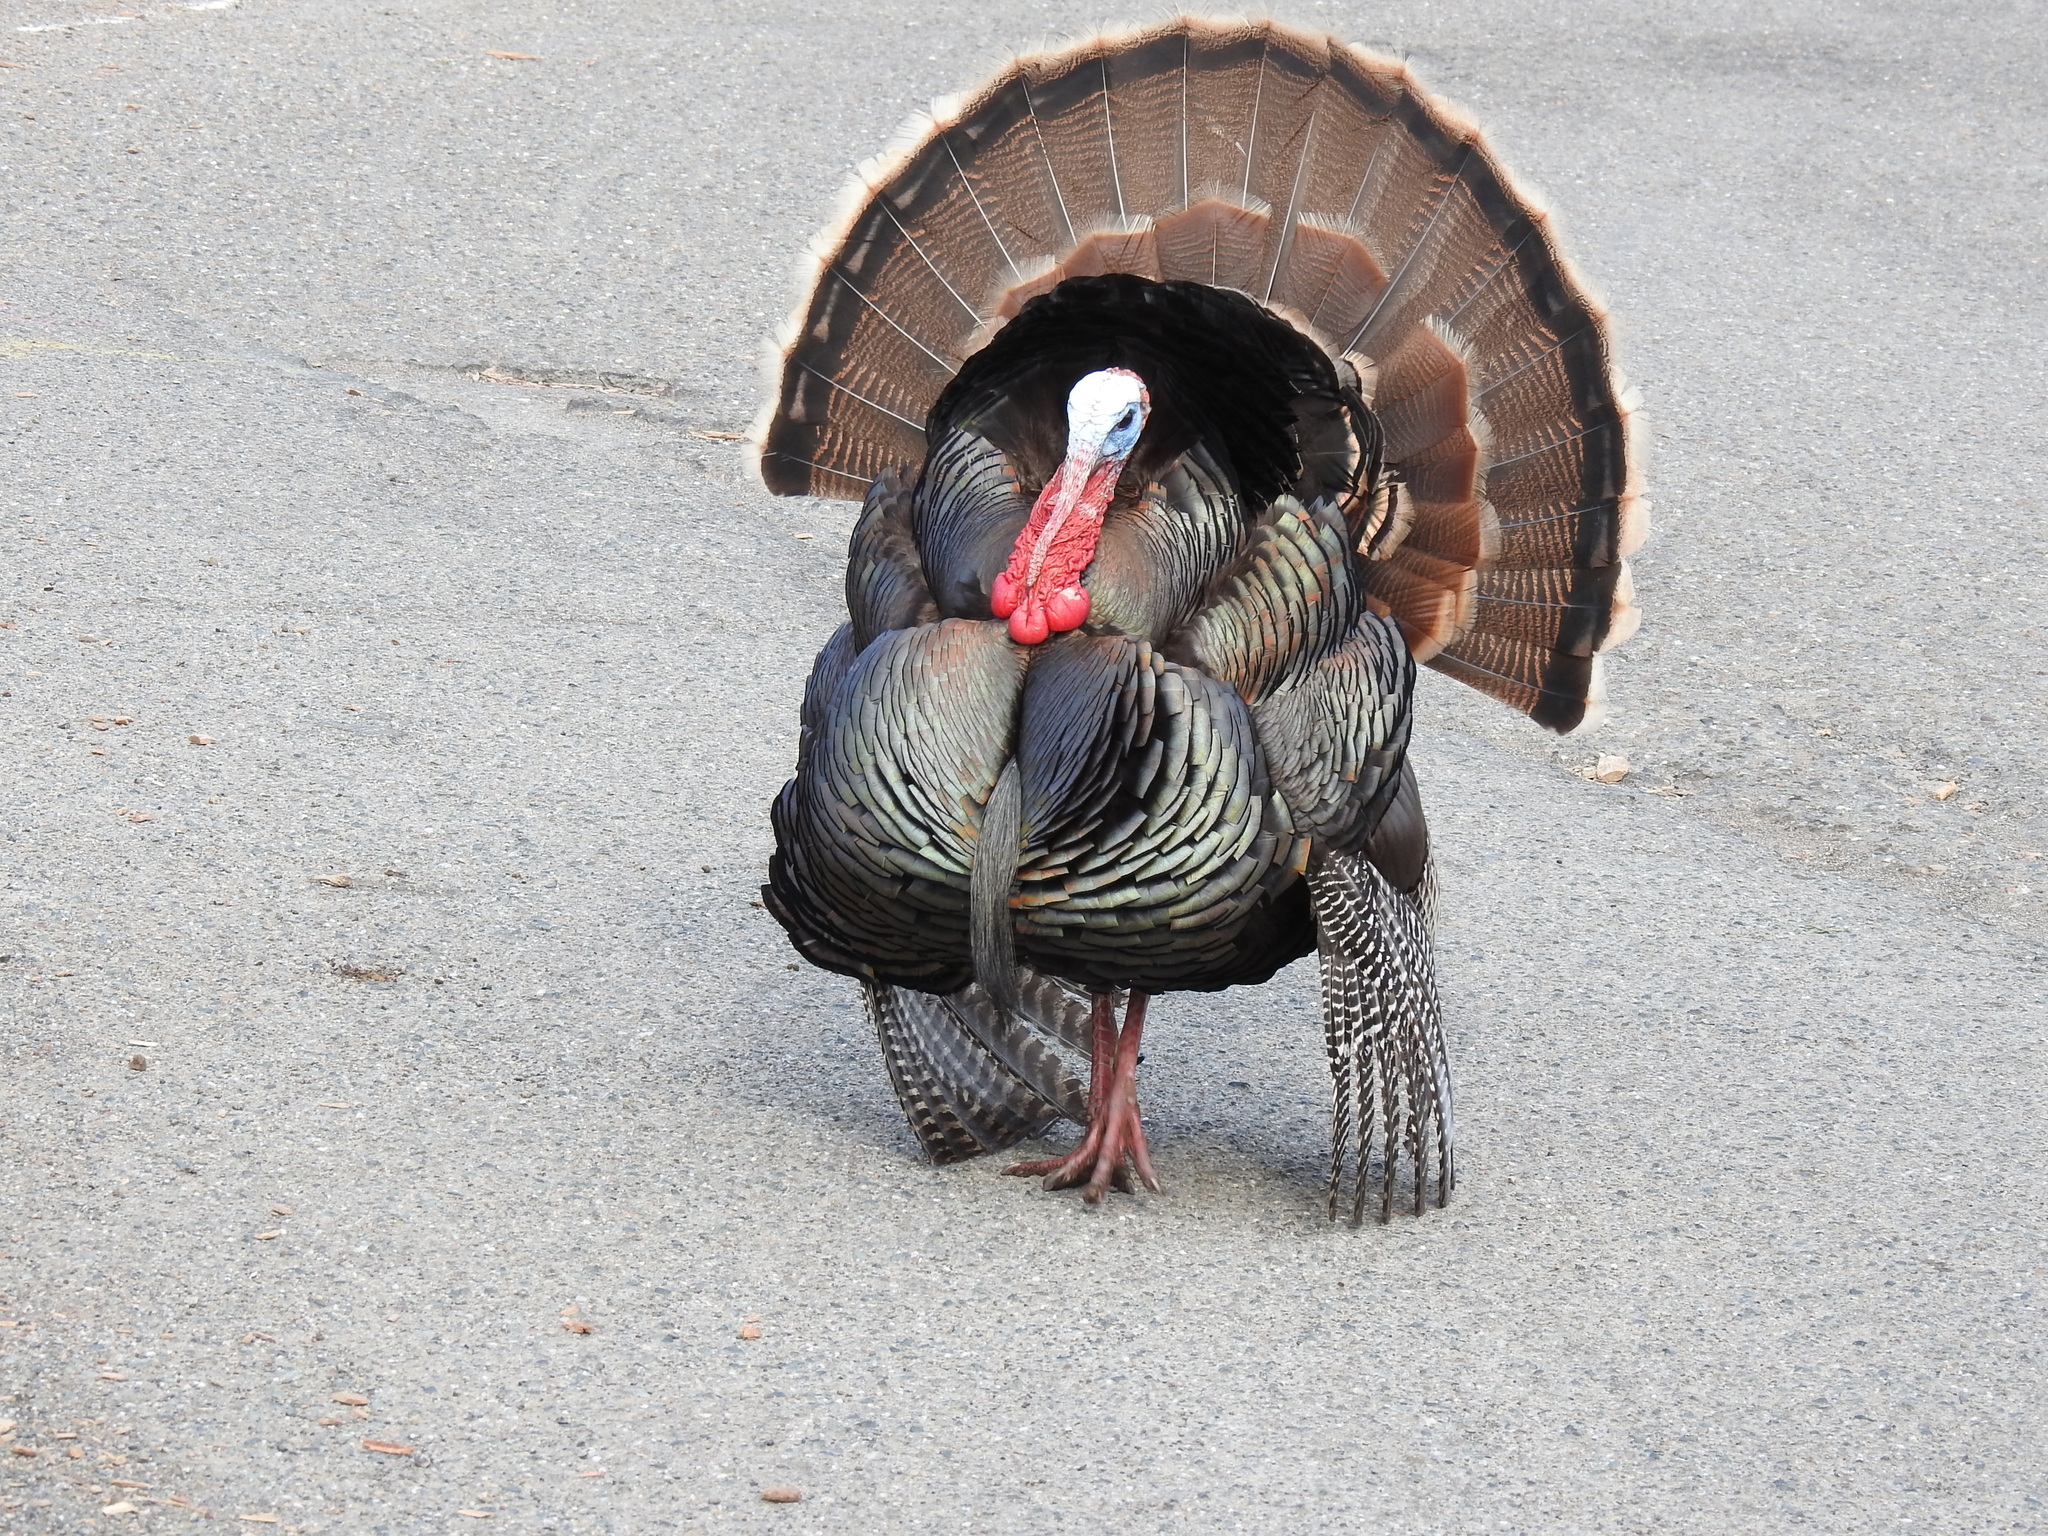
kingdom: Animalia
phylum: Chordata
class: Aves
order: Galliformes
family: Phasianidae
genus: Meleagris
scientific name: Meleagris gallopavo
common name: Wild turkey
